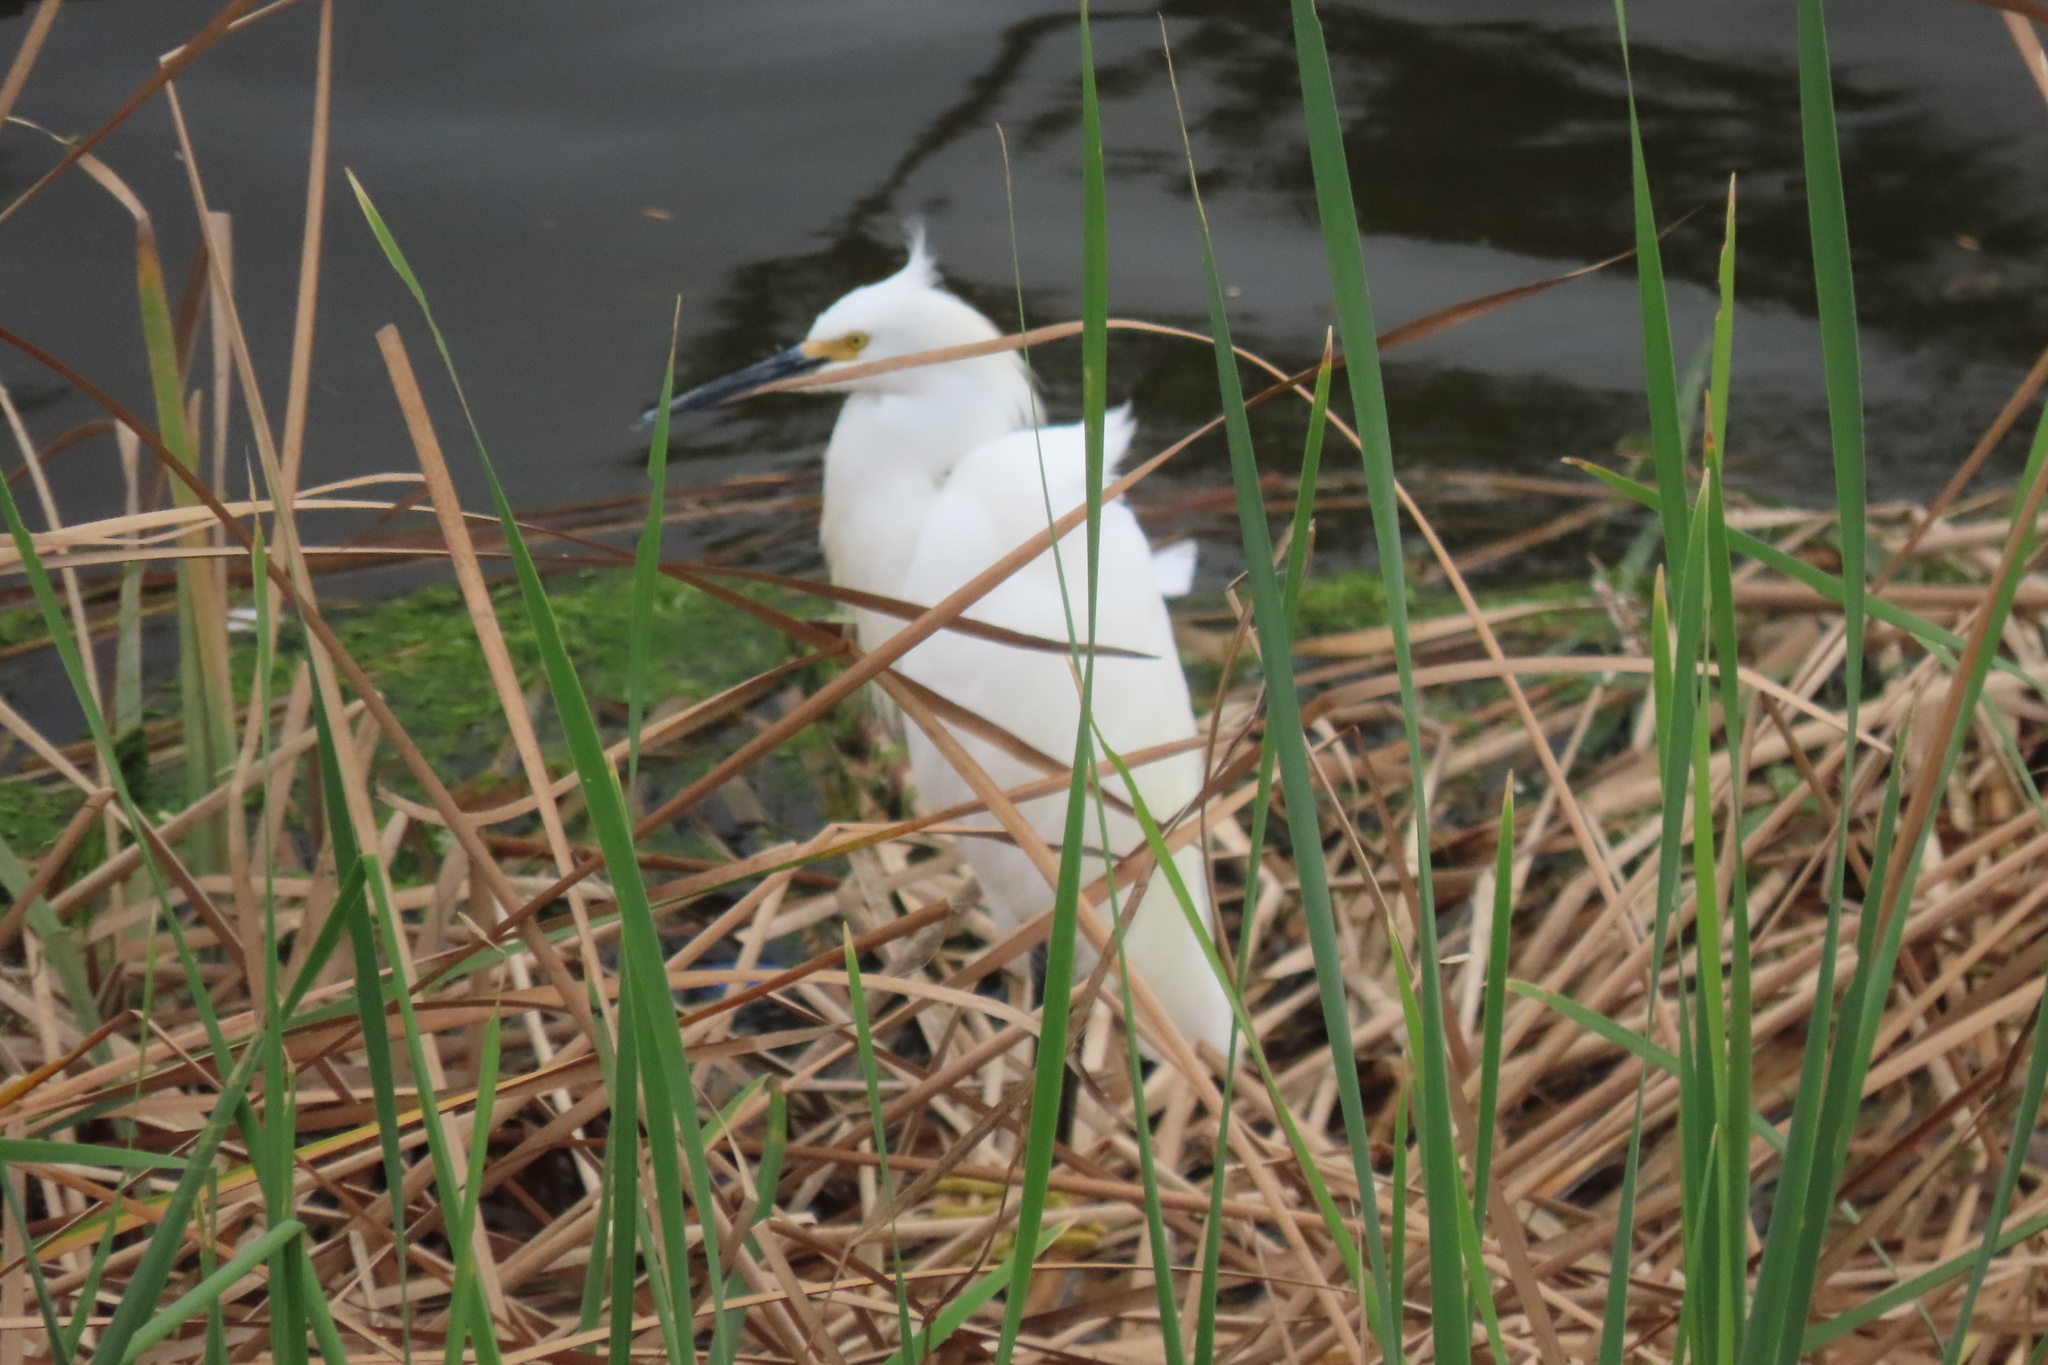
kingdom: Animalia
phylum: Chordata
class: Aves
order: Pelecaniformes
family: Ardeidae
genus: Egretta
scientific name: Egretta thula
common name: Snowy egret
